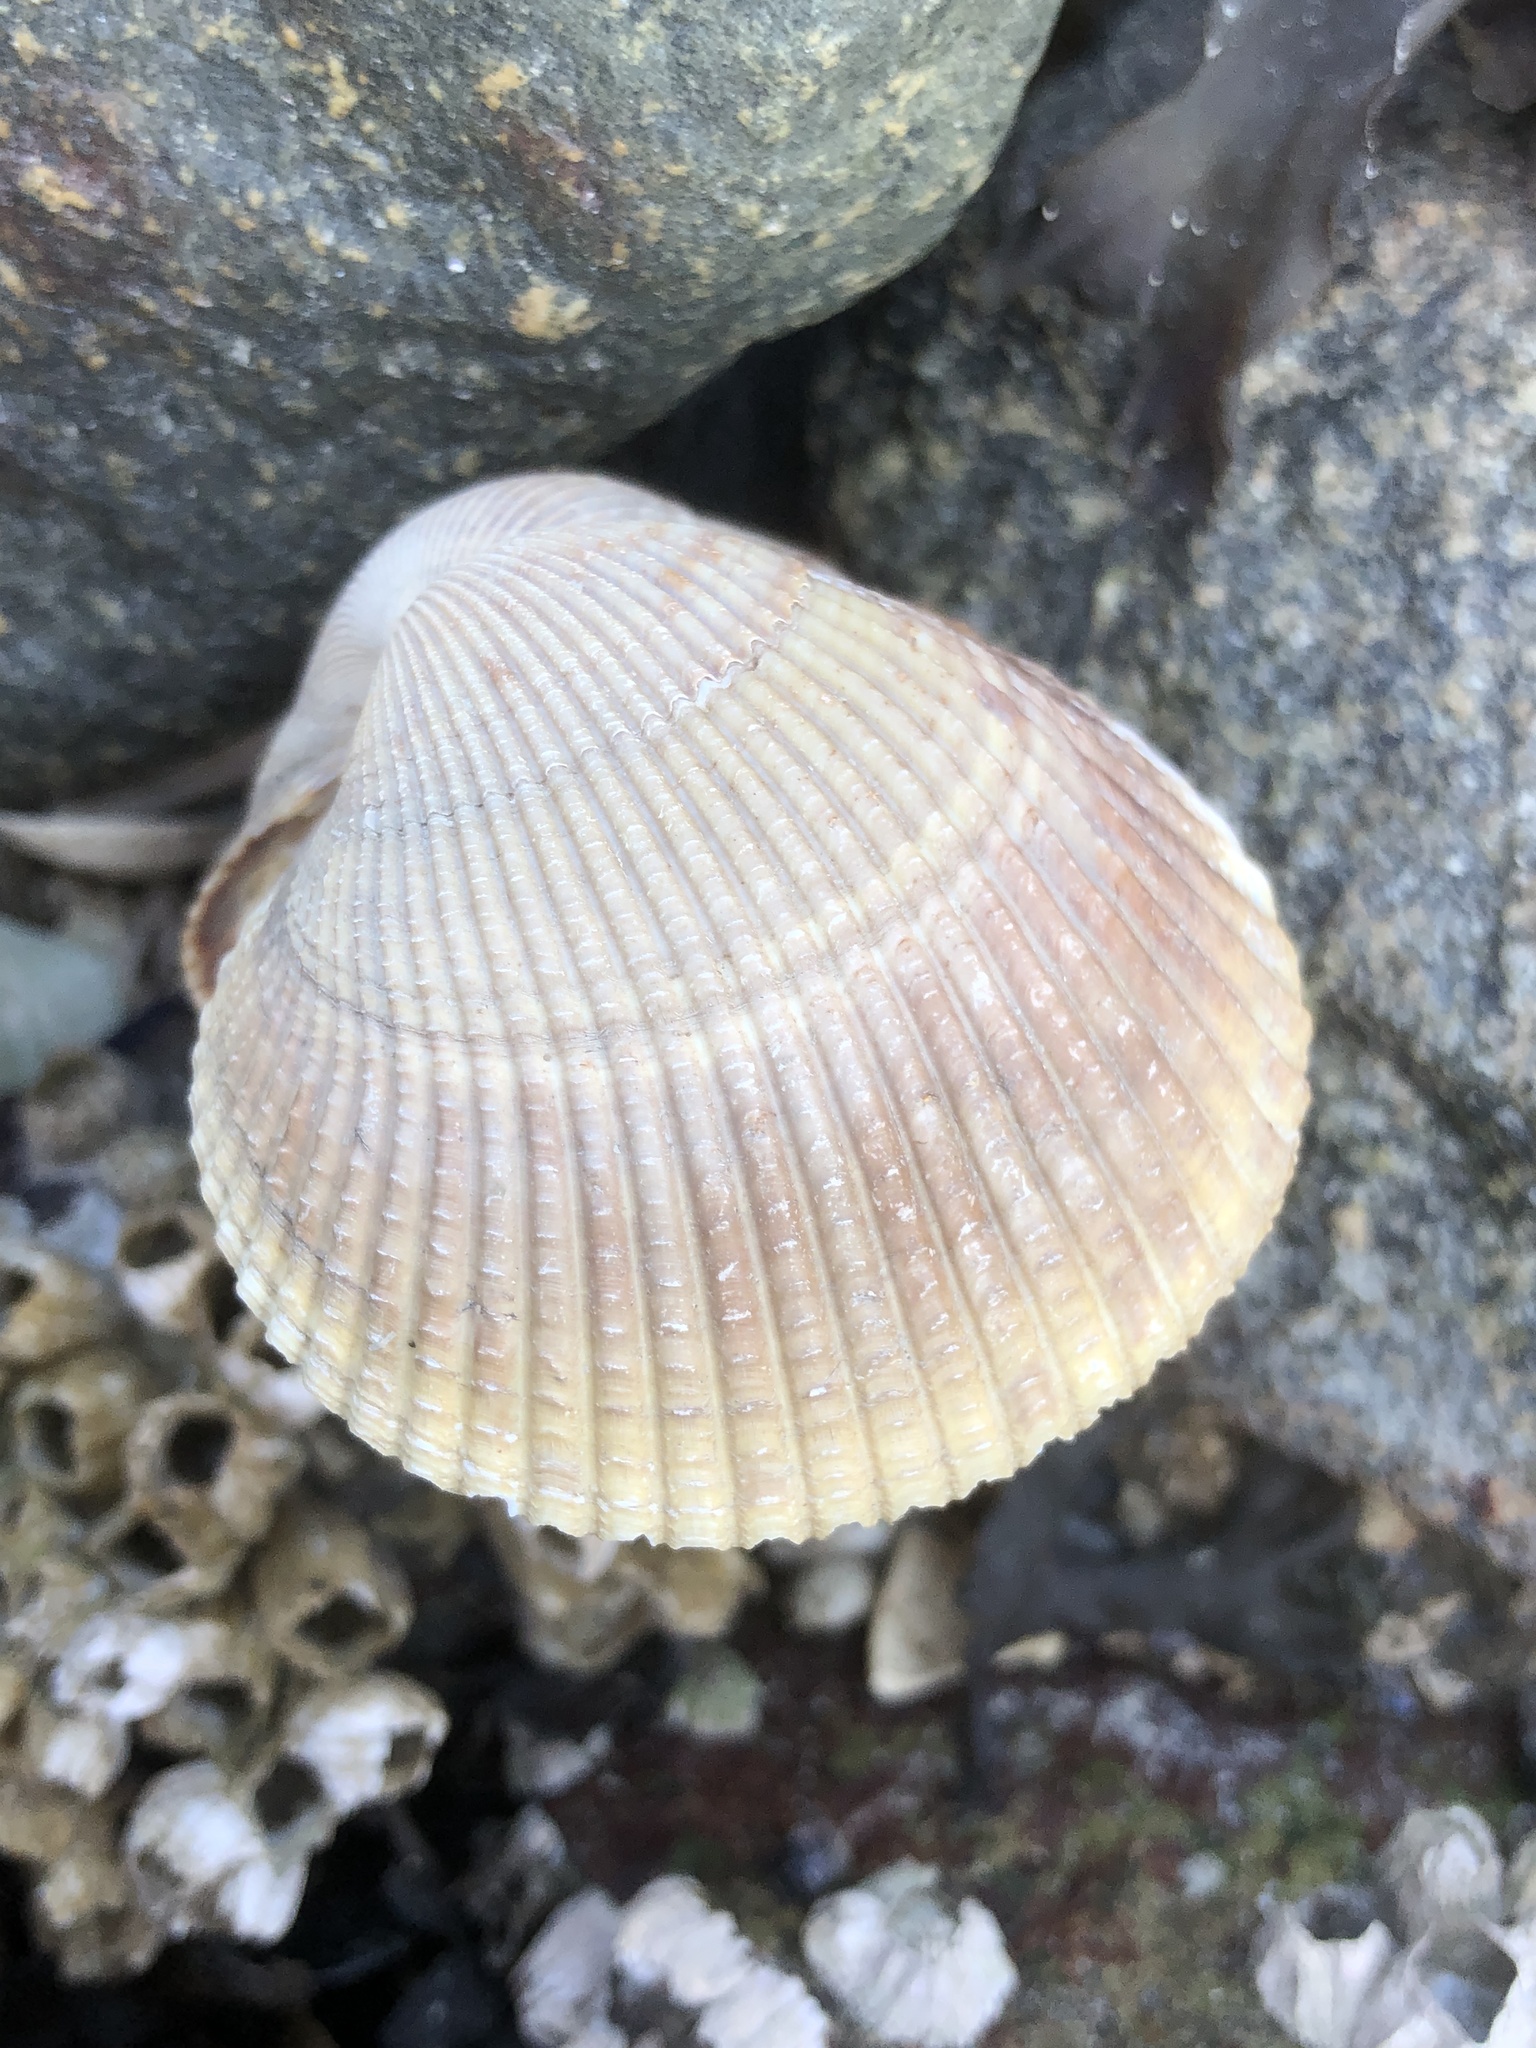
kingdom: Animalia
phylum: Mollusca
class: Bivalvia
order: Cardiida
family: Cardiidae
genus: Clinocardium
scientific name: Clinocardium nuttallii
